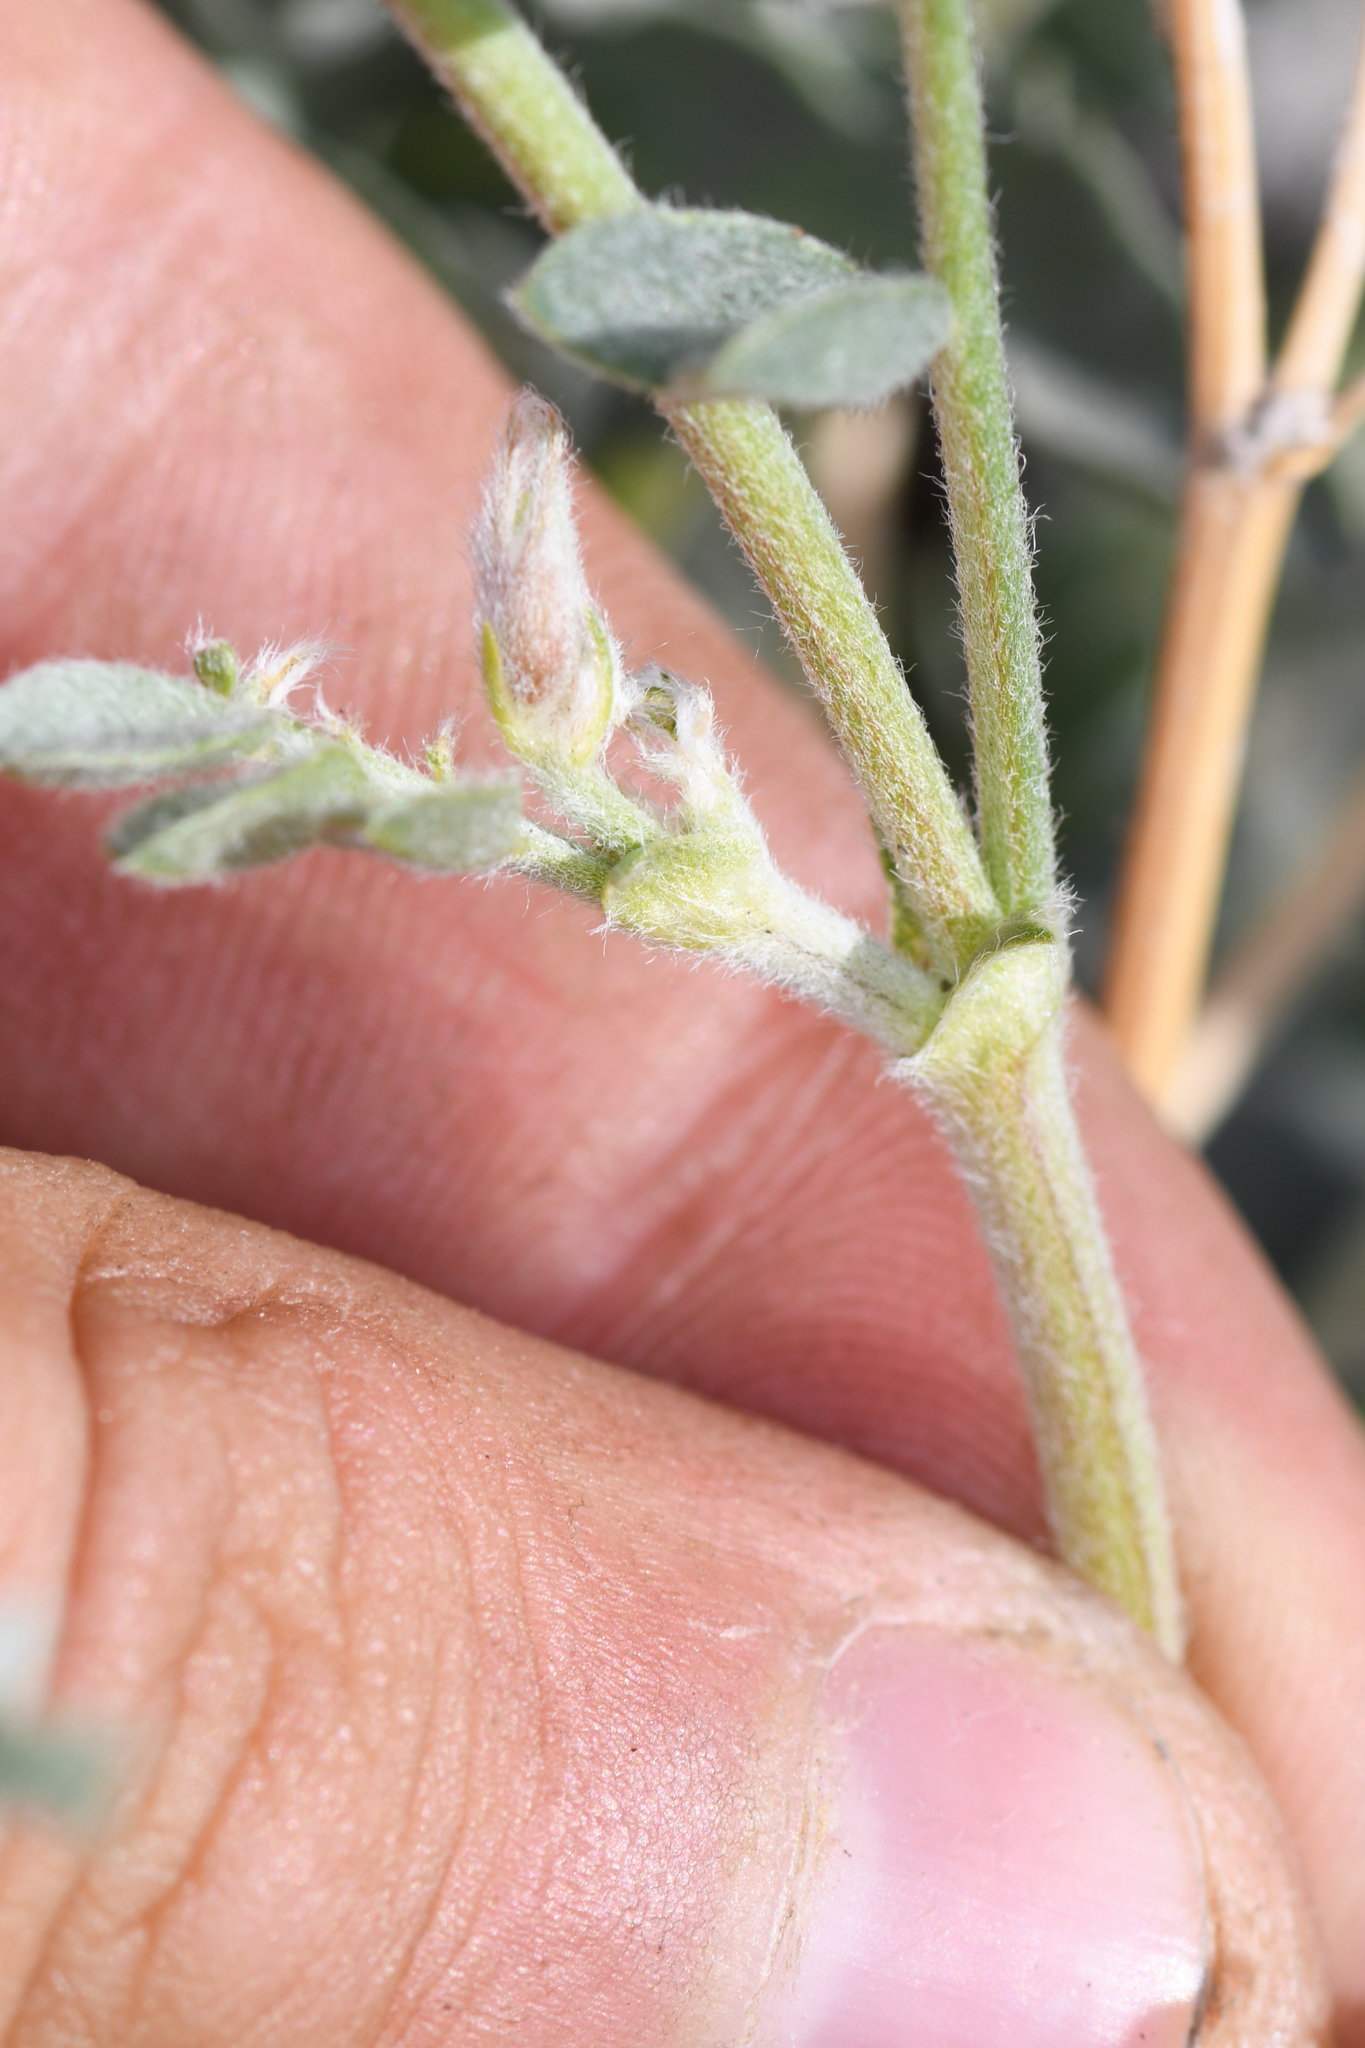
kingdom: Plantae
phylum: Tracheophyta
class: Magnoliopsida
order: Fabales
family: Fabaceae
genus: Astragalus
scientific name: Astragalus andersonii
